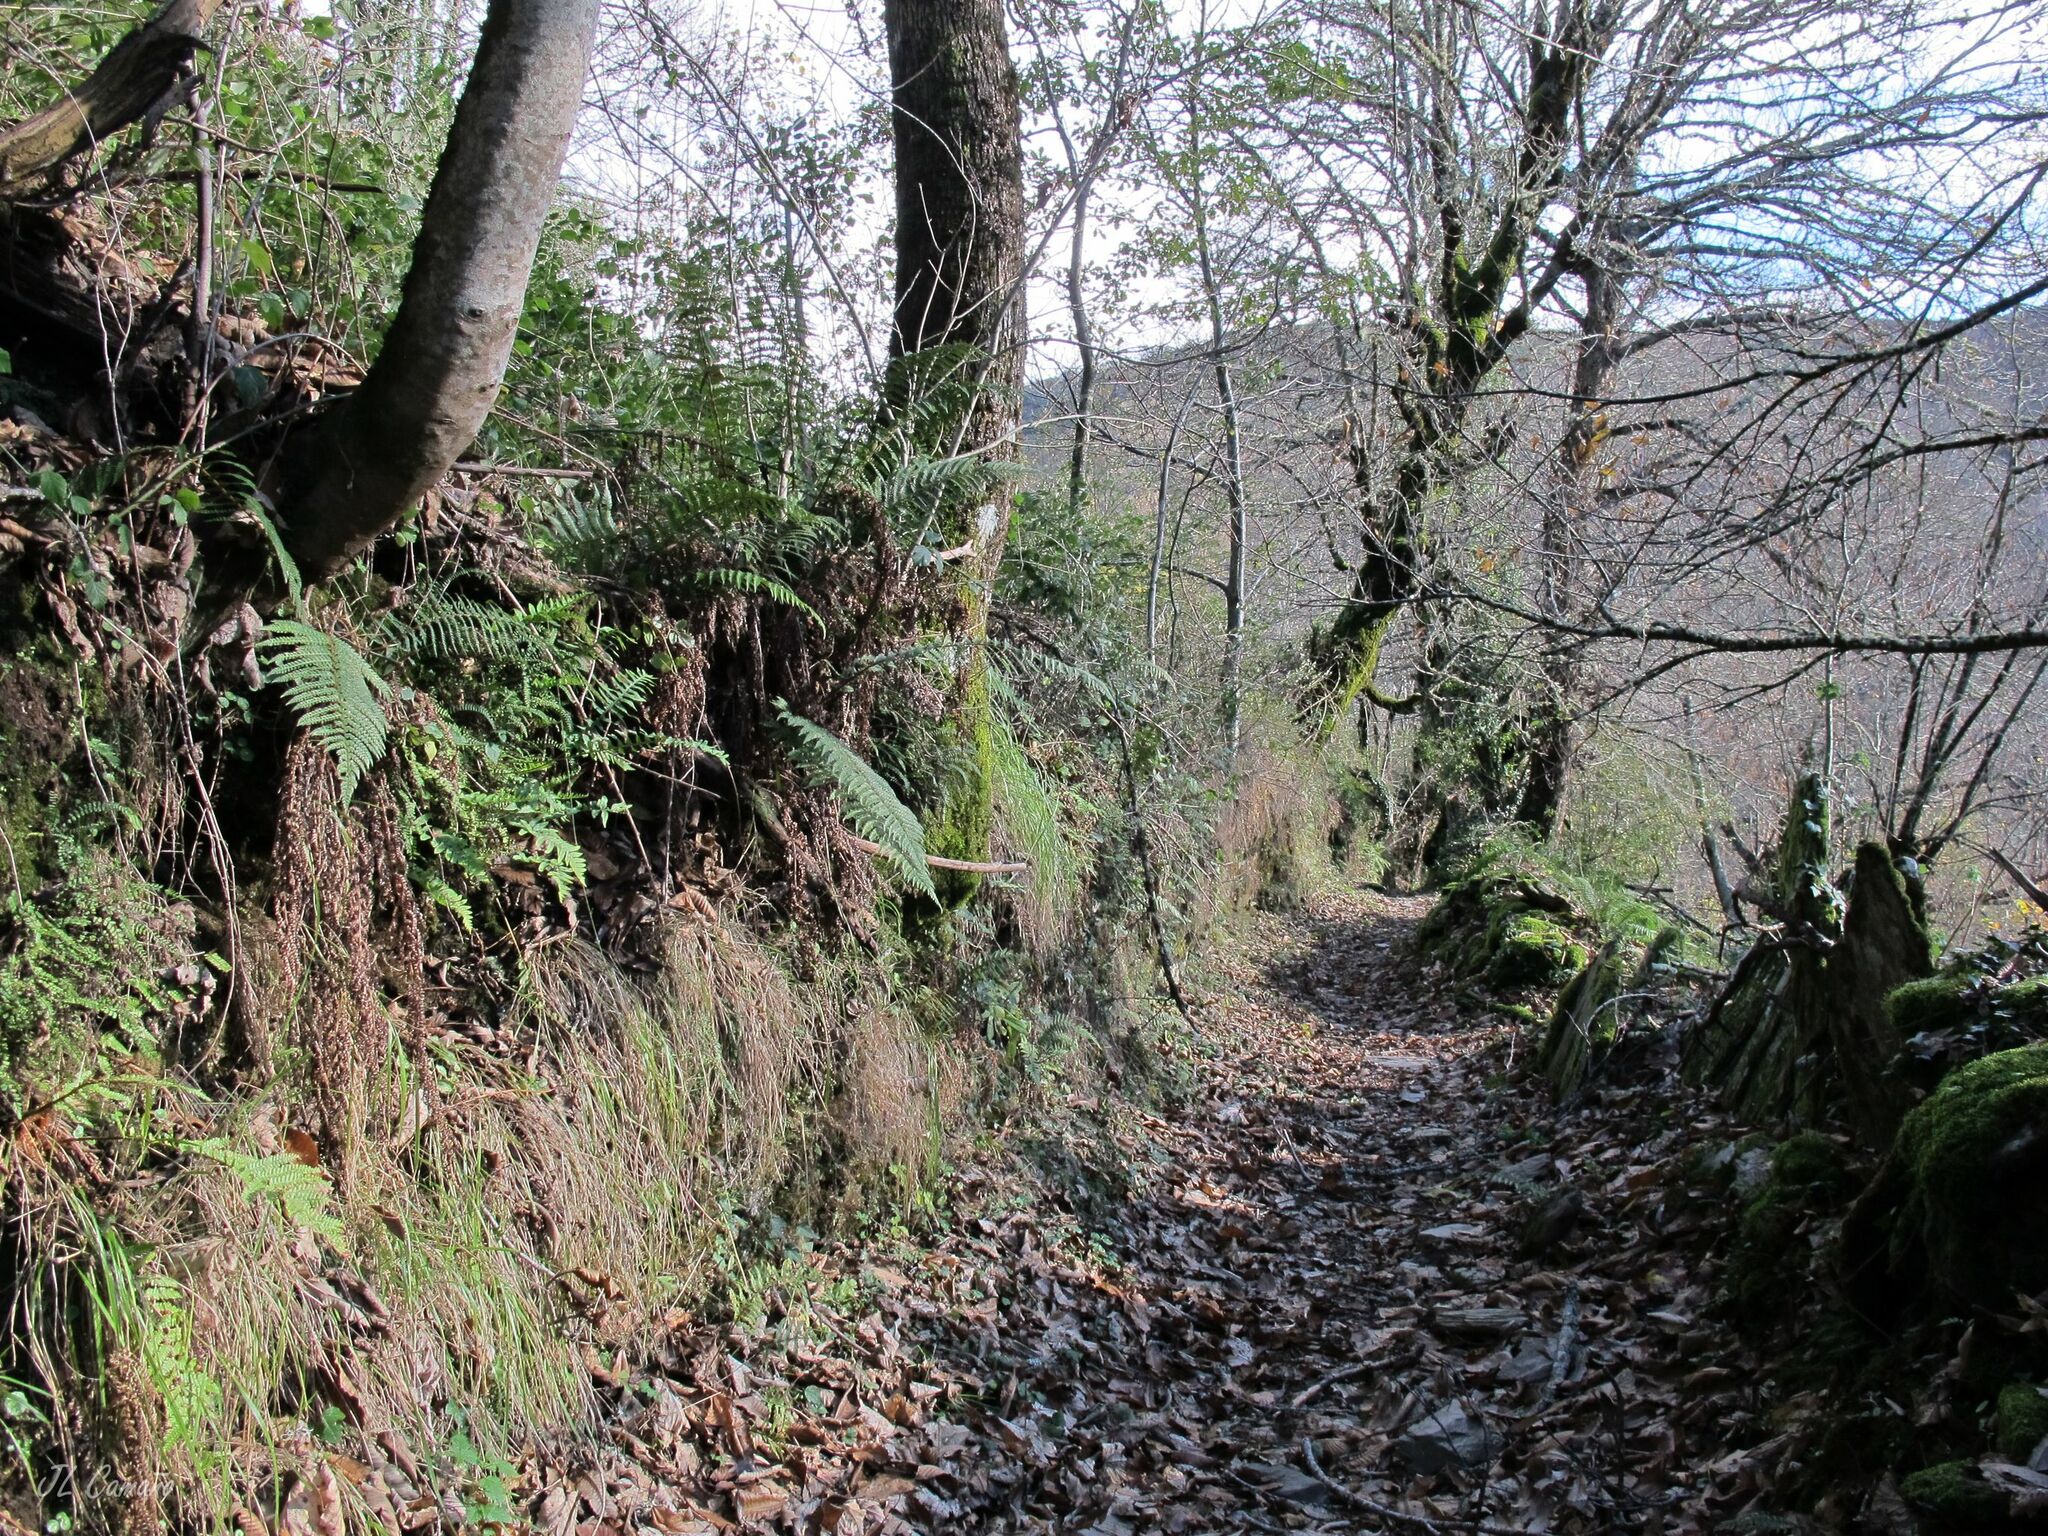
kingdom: Plantae
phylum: Bryophyta
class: Bryopsida
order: Hypnales
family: Lembophyllaceae
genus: Nogopterium
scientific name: Nogopterium gracile
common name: Bird's-foot wing-moss
